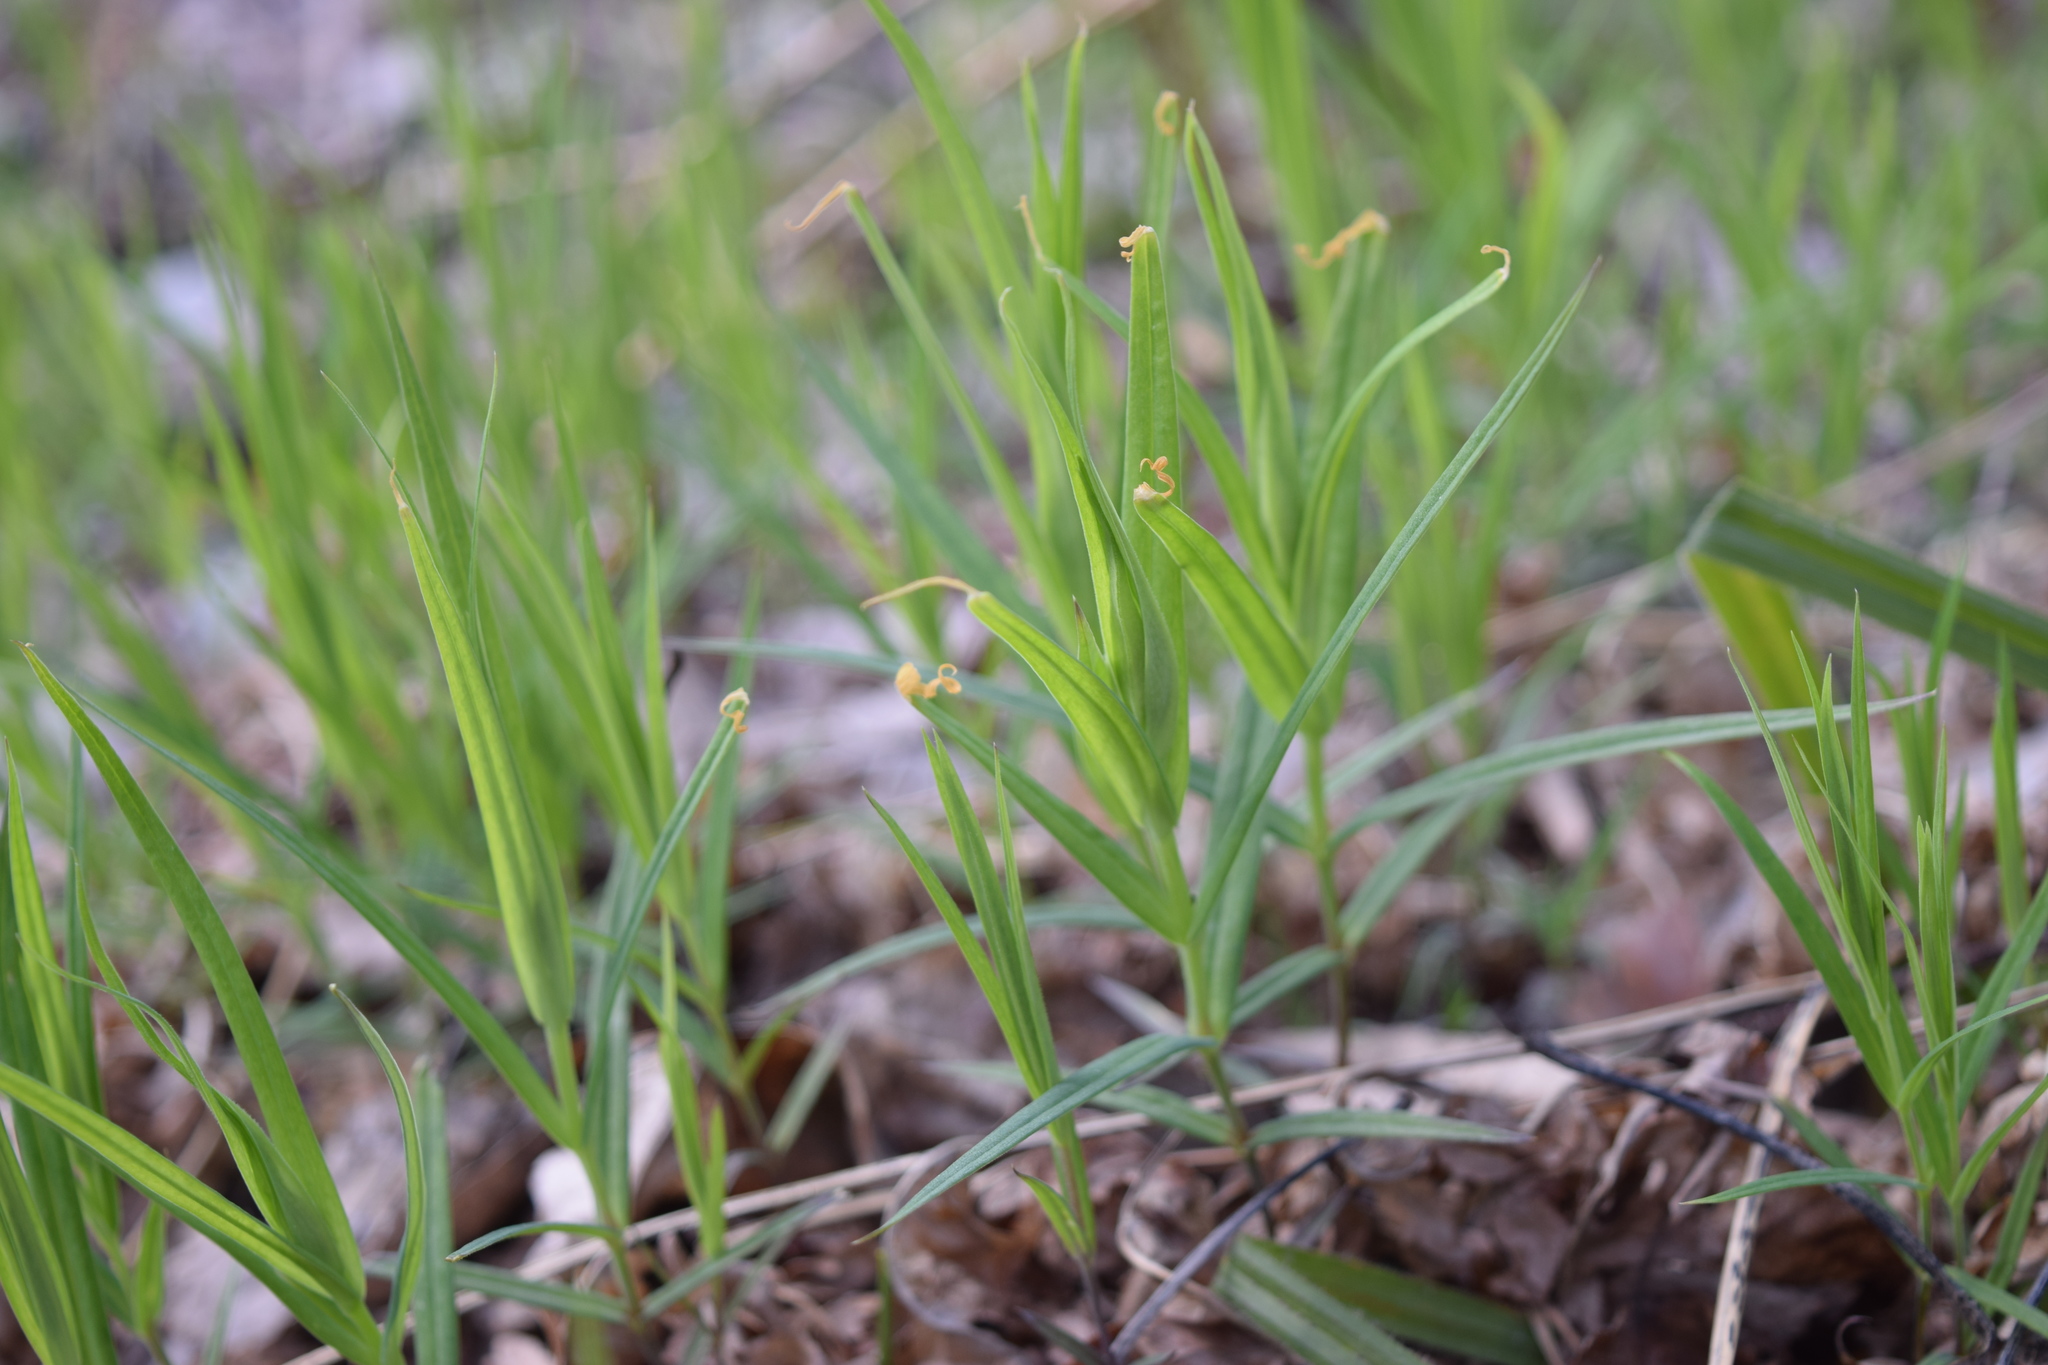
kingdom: Plantae
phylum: Tracheophyta
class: Magnoliopsida
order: Caryophyllales
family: Caryophyllaceae
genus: Rabelera
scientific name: Rabelera holostea
